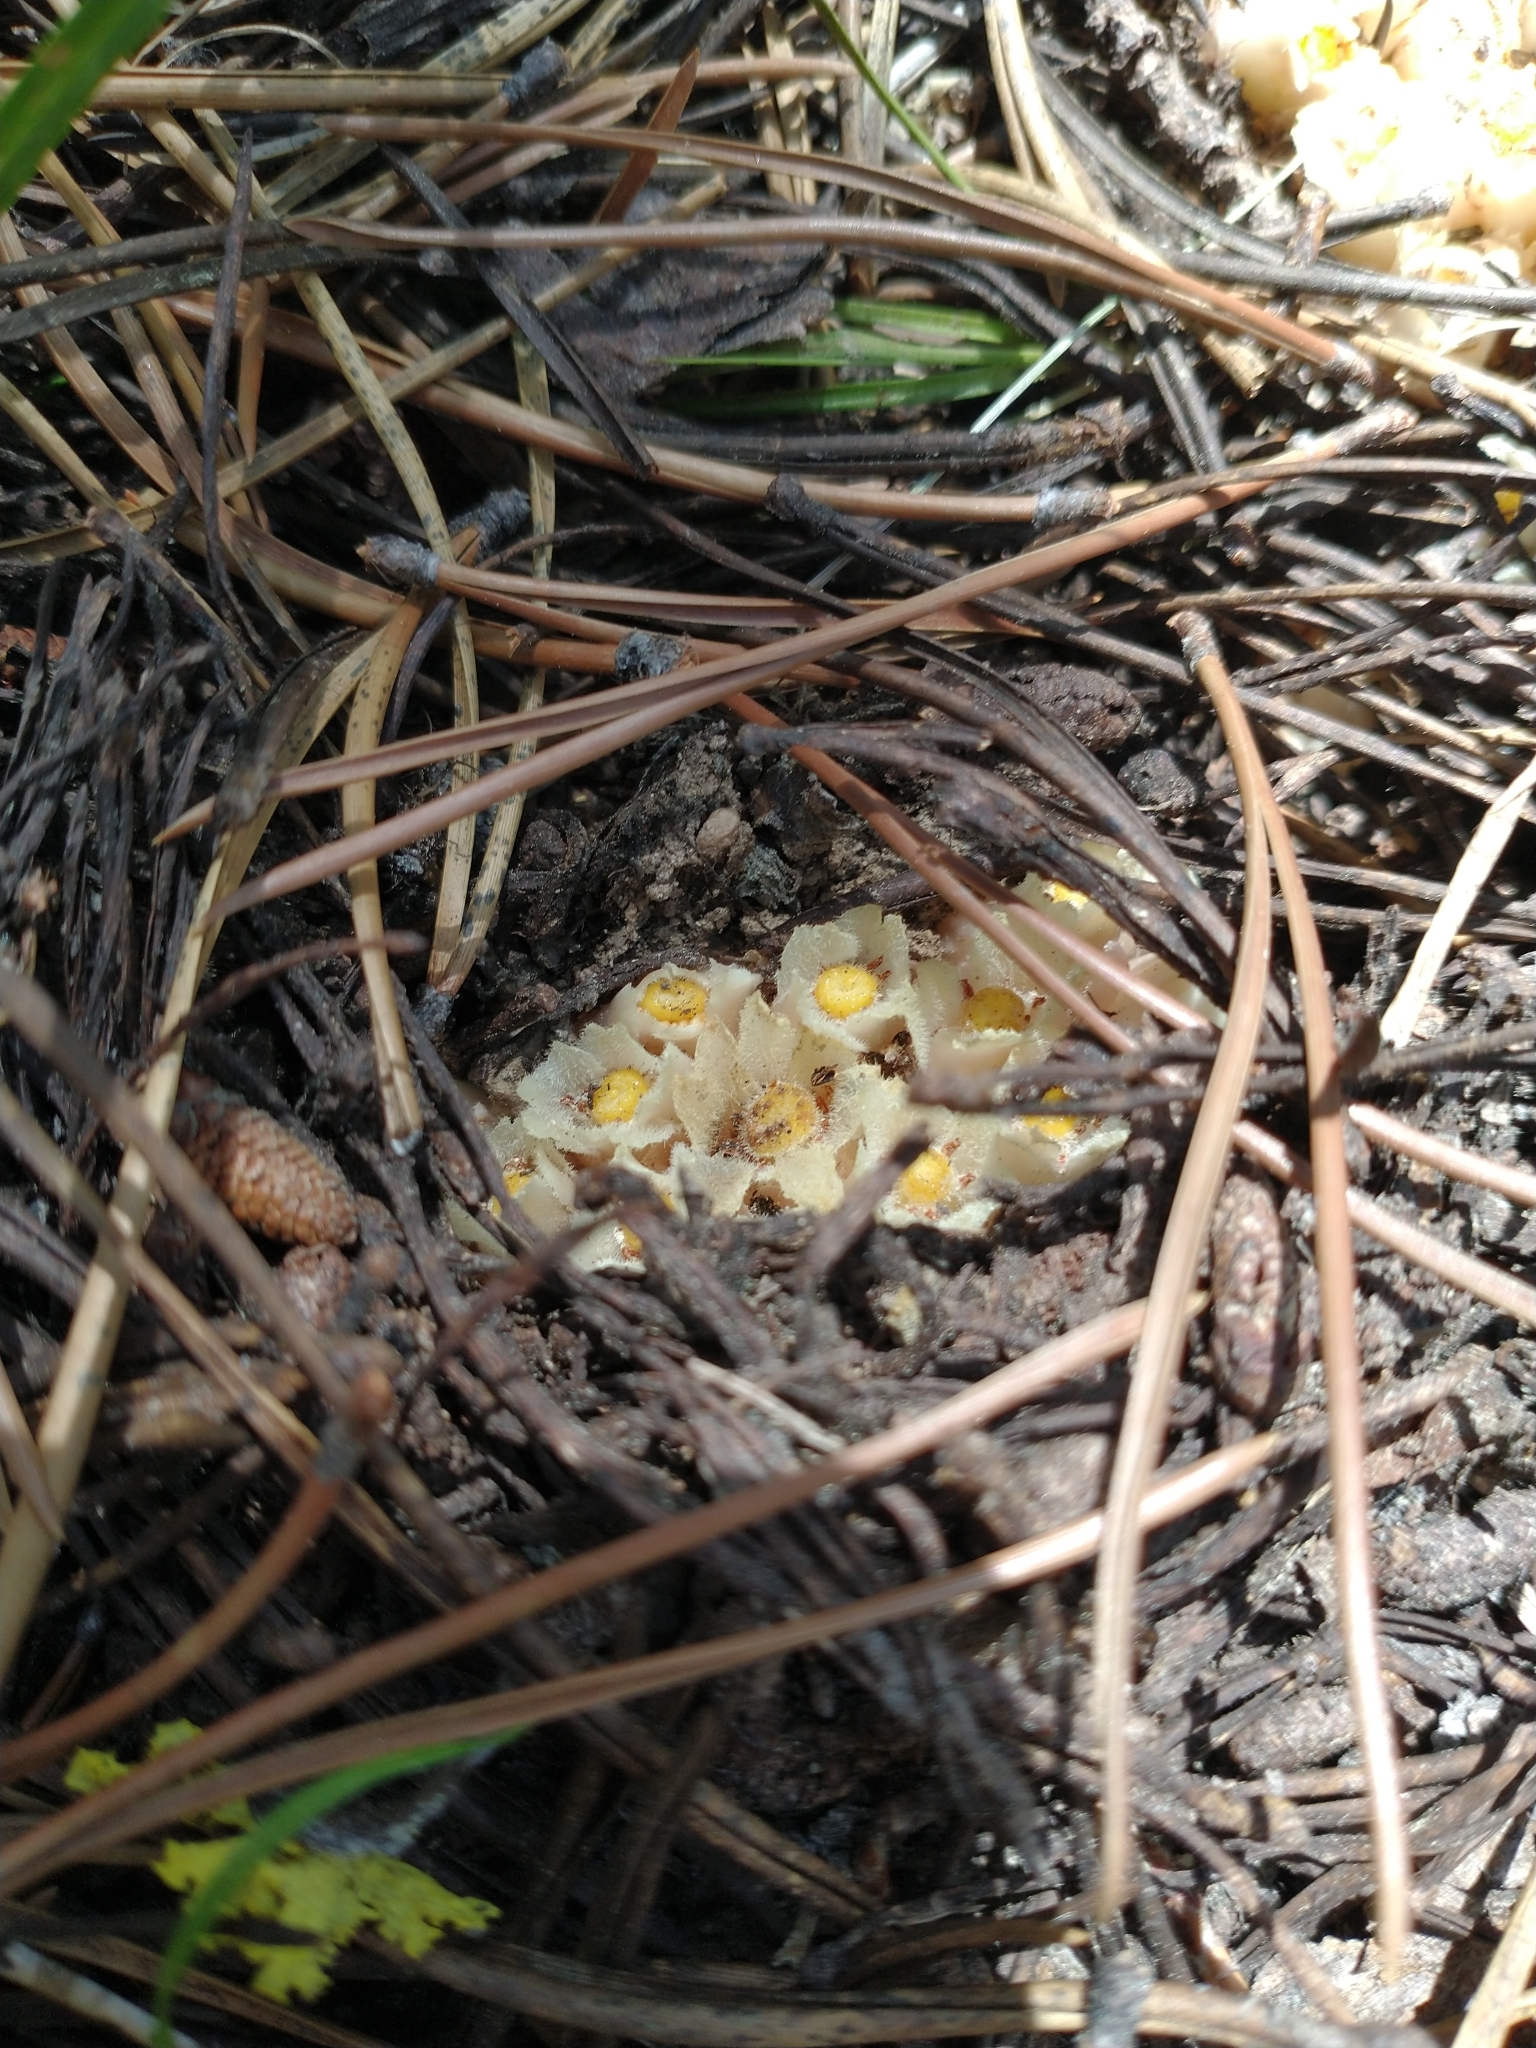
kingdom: Plantae
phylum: Tracheophyta
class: Magnoliopsida
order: Ericales
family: Ericaceae
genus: Hemitomes
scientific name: Hemitomes congestum
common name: Cone plant
